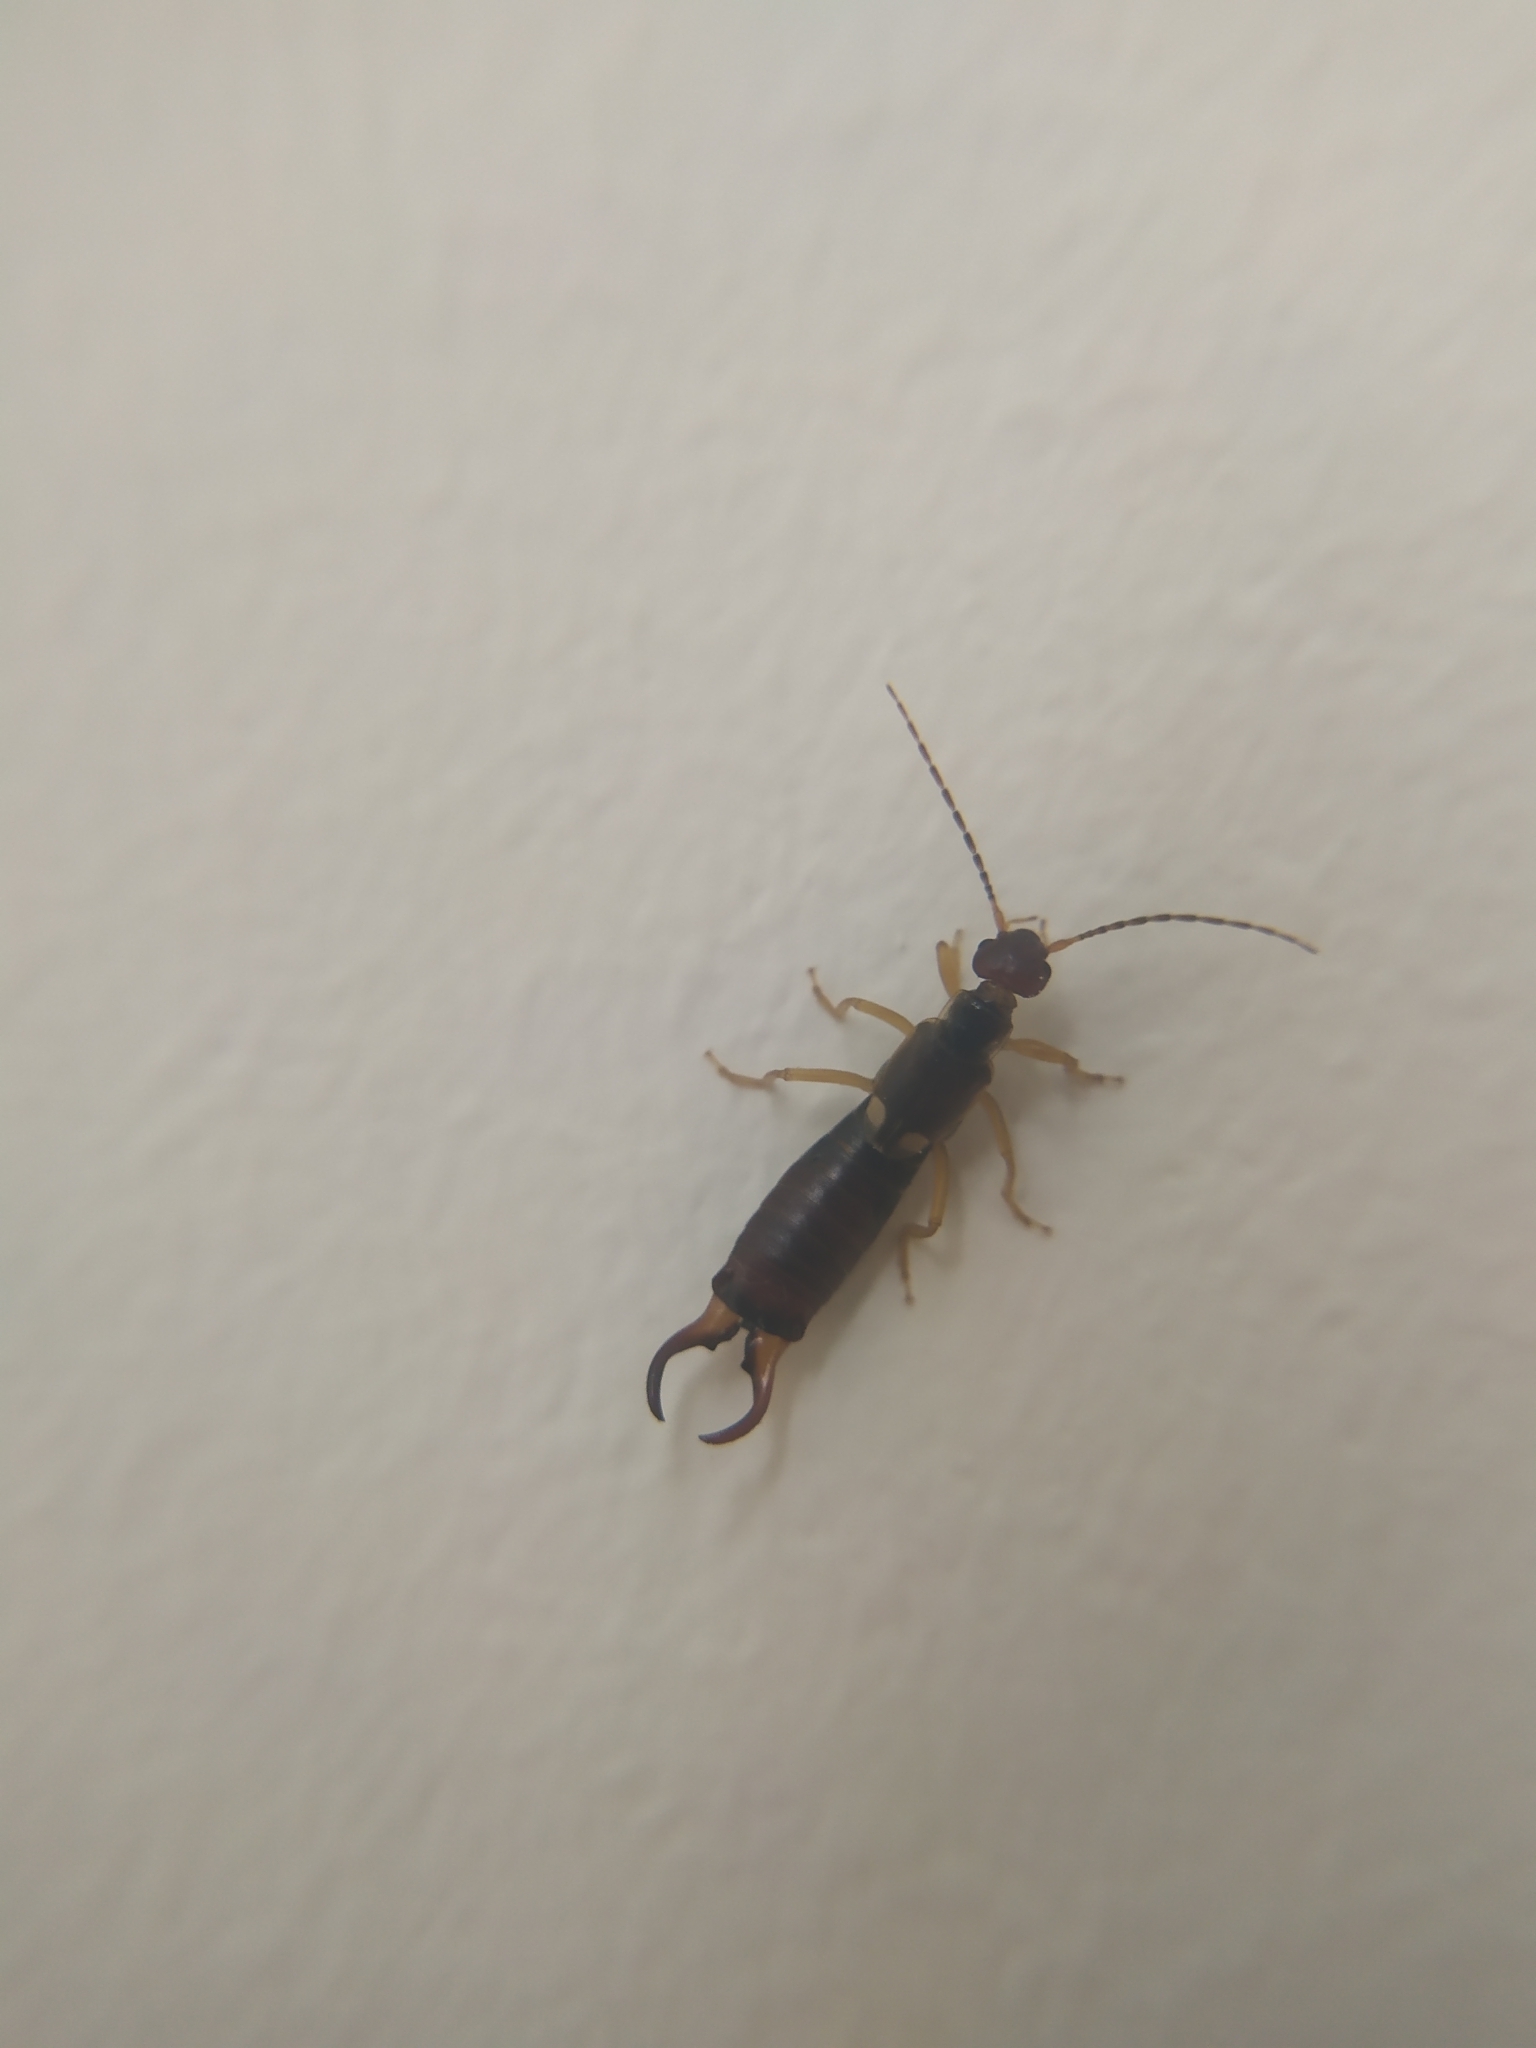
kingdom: Animalia
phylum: Arthropoda
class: Insecta
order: Dermaptera
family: Forficulidae
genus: Forficula
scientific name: Forficula
